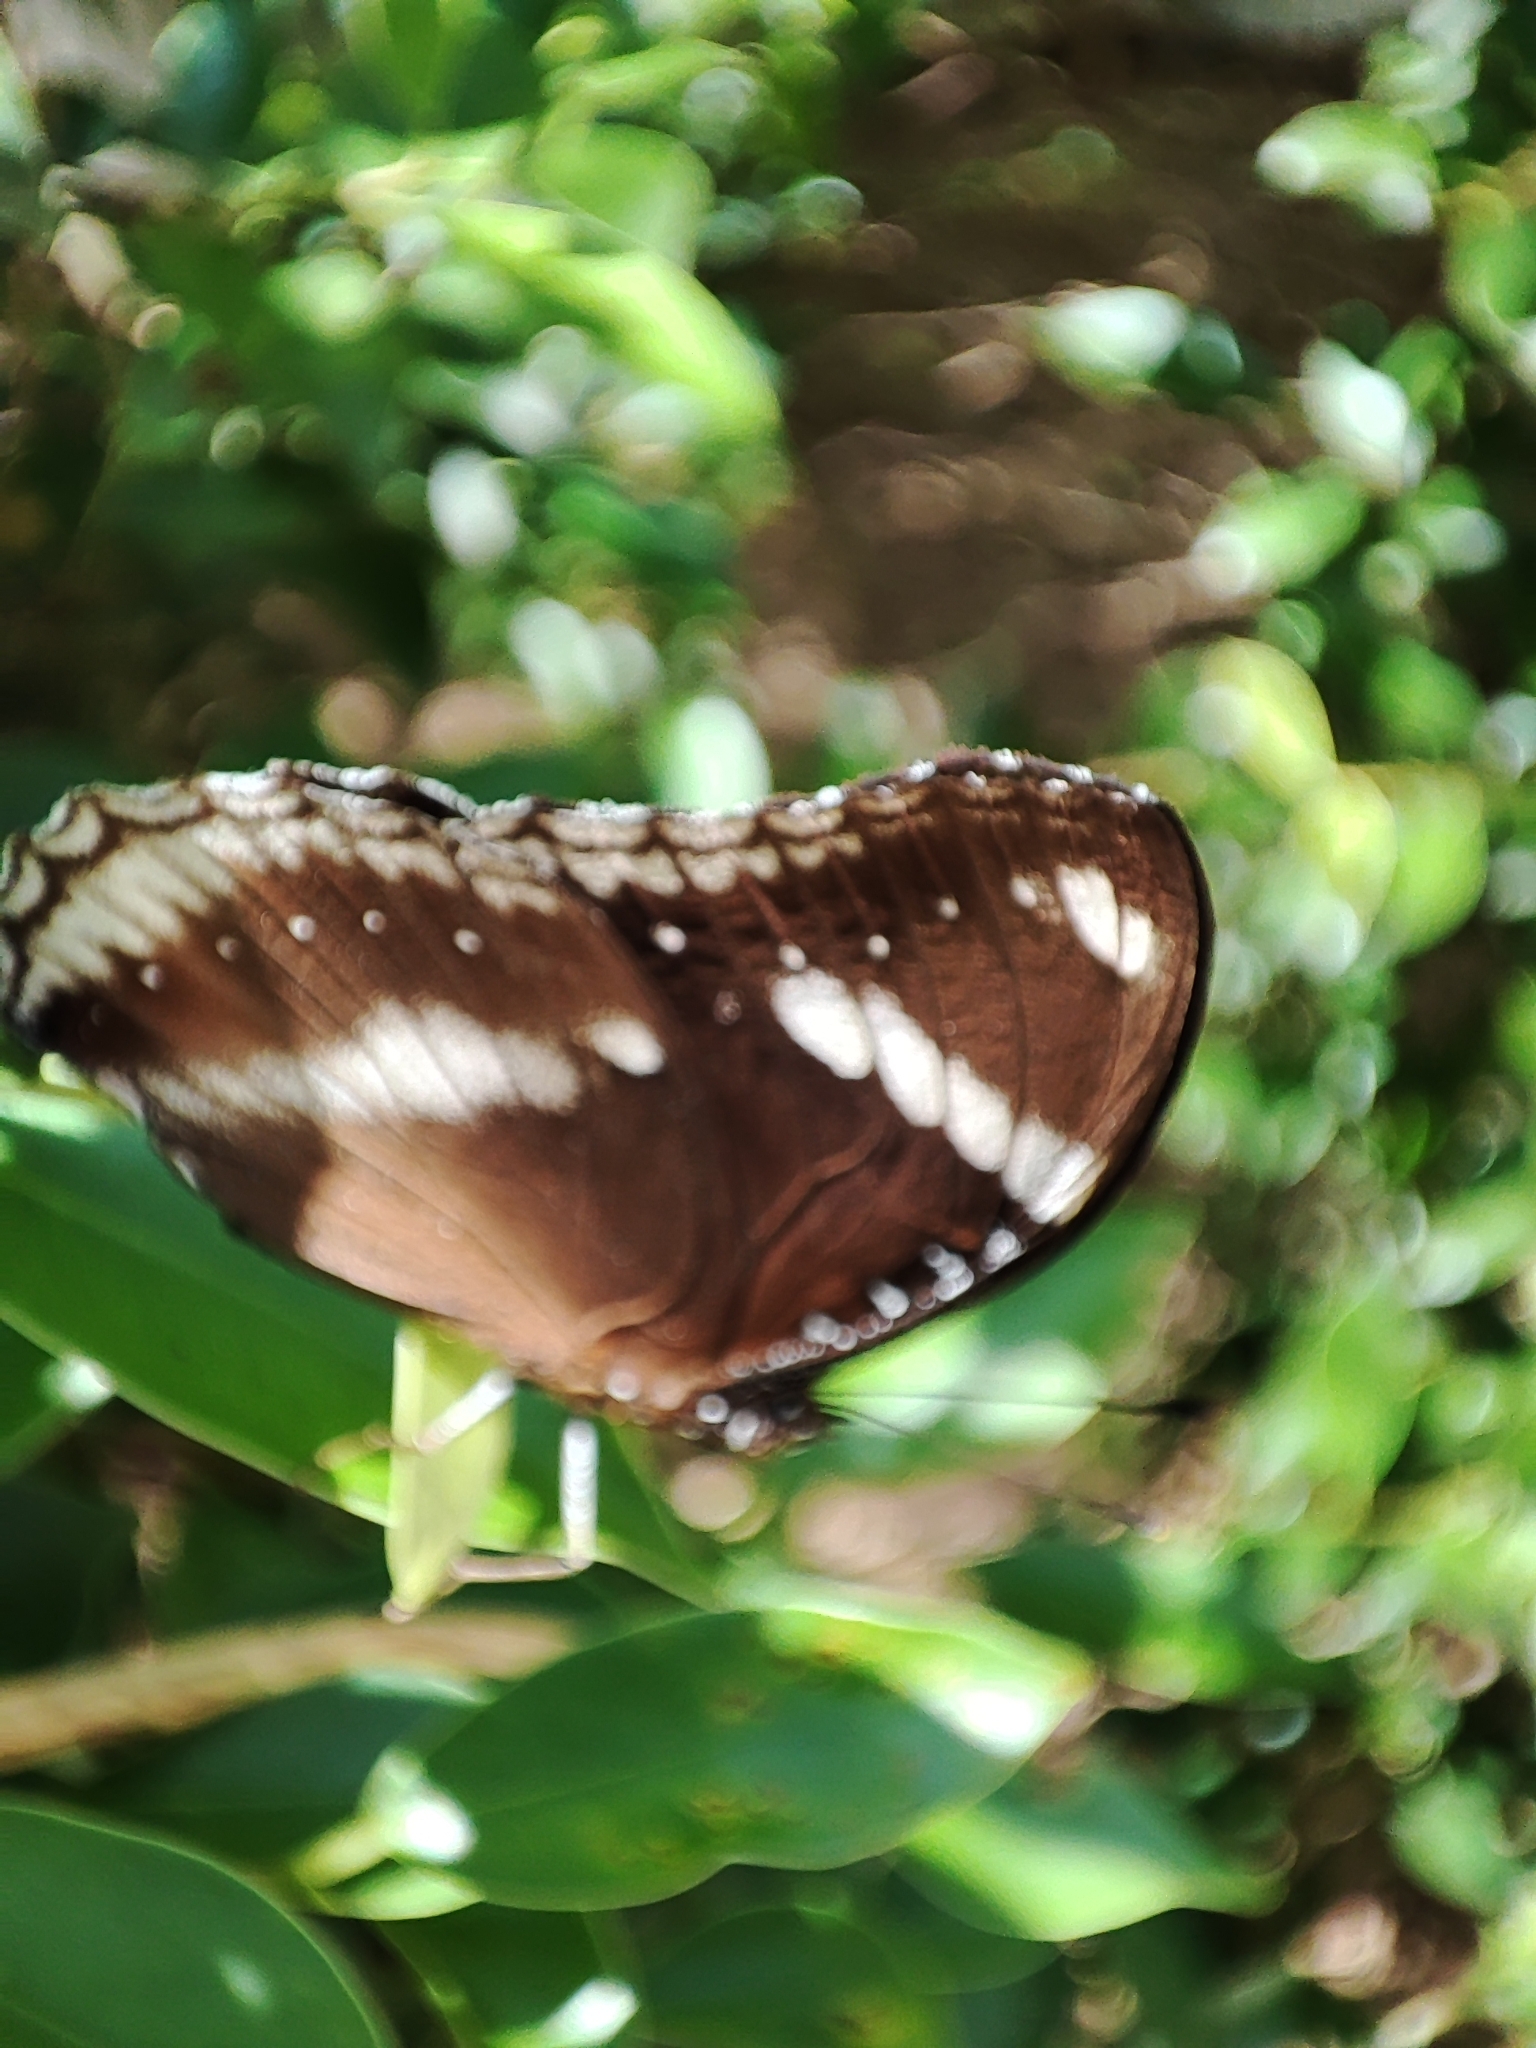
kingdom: Animalia
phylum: Arthropoda
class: Insecta
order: Lepidoptera
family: Nymphalidae
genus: Hypolimnas
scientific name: Hypolimnas bolina
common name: Great eggfly
